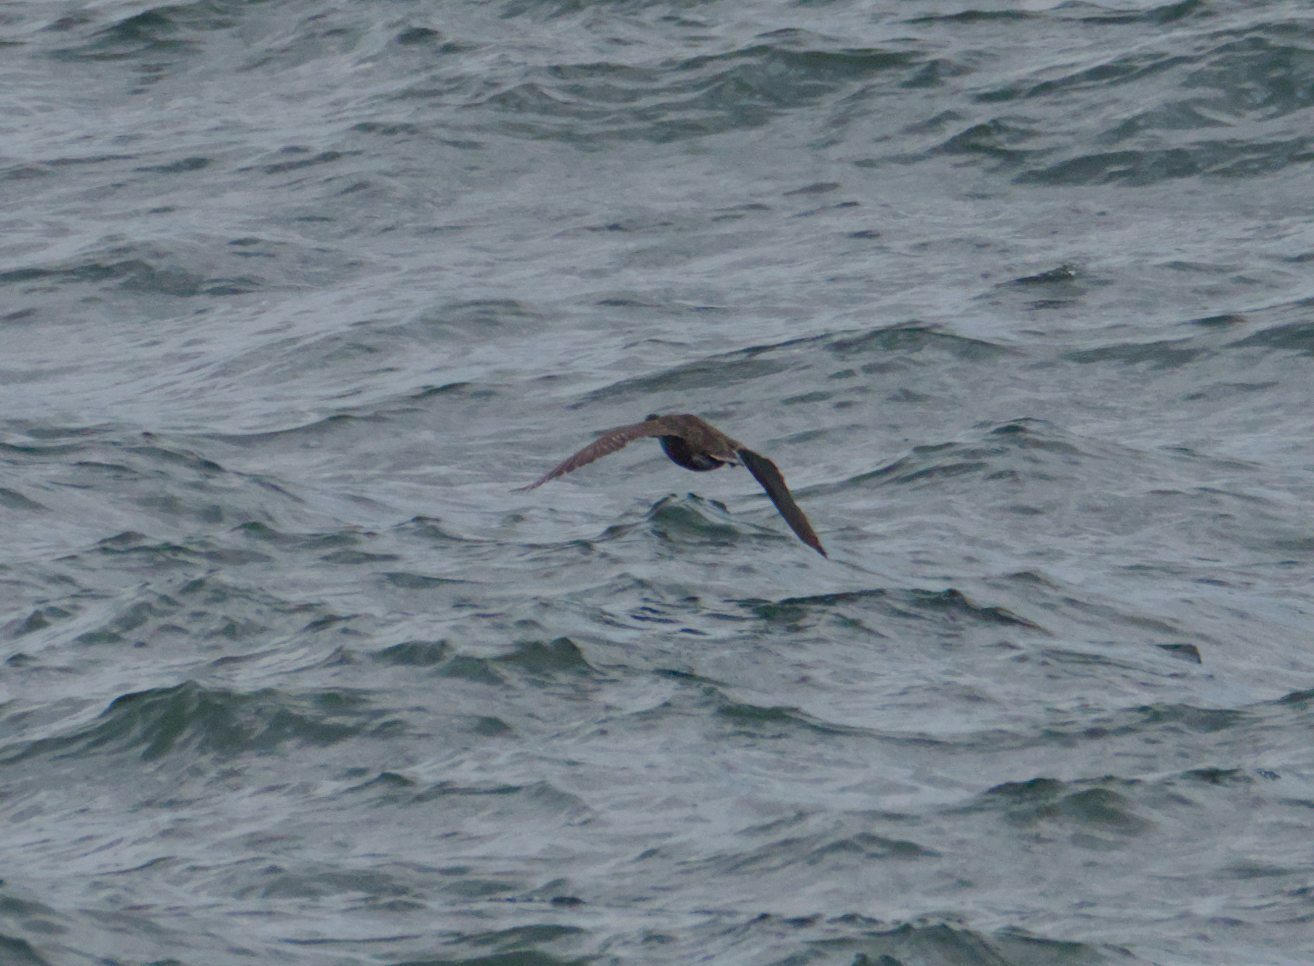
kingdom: Animalia
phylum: Chordata
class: Aves
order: Anseriformes
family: Anatidae
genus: Somateria
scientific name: Somateria mollissima
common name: Common eider
